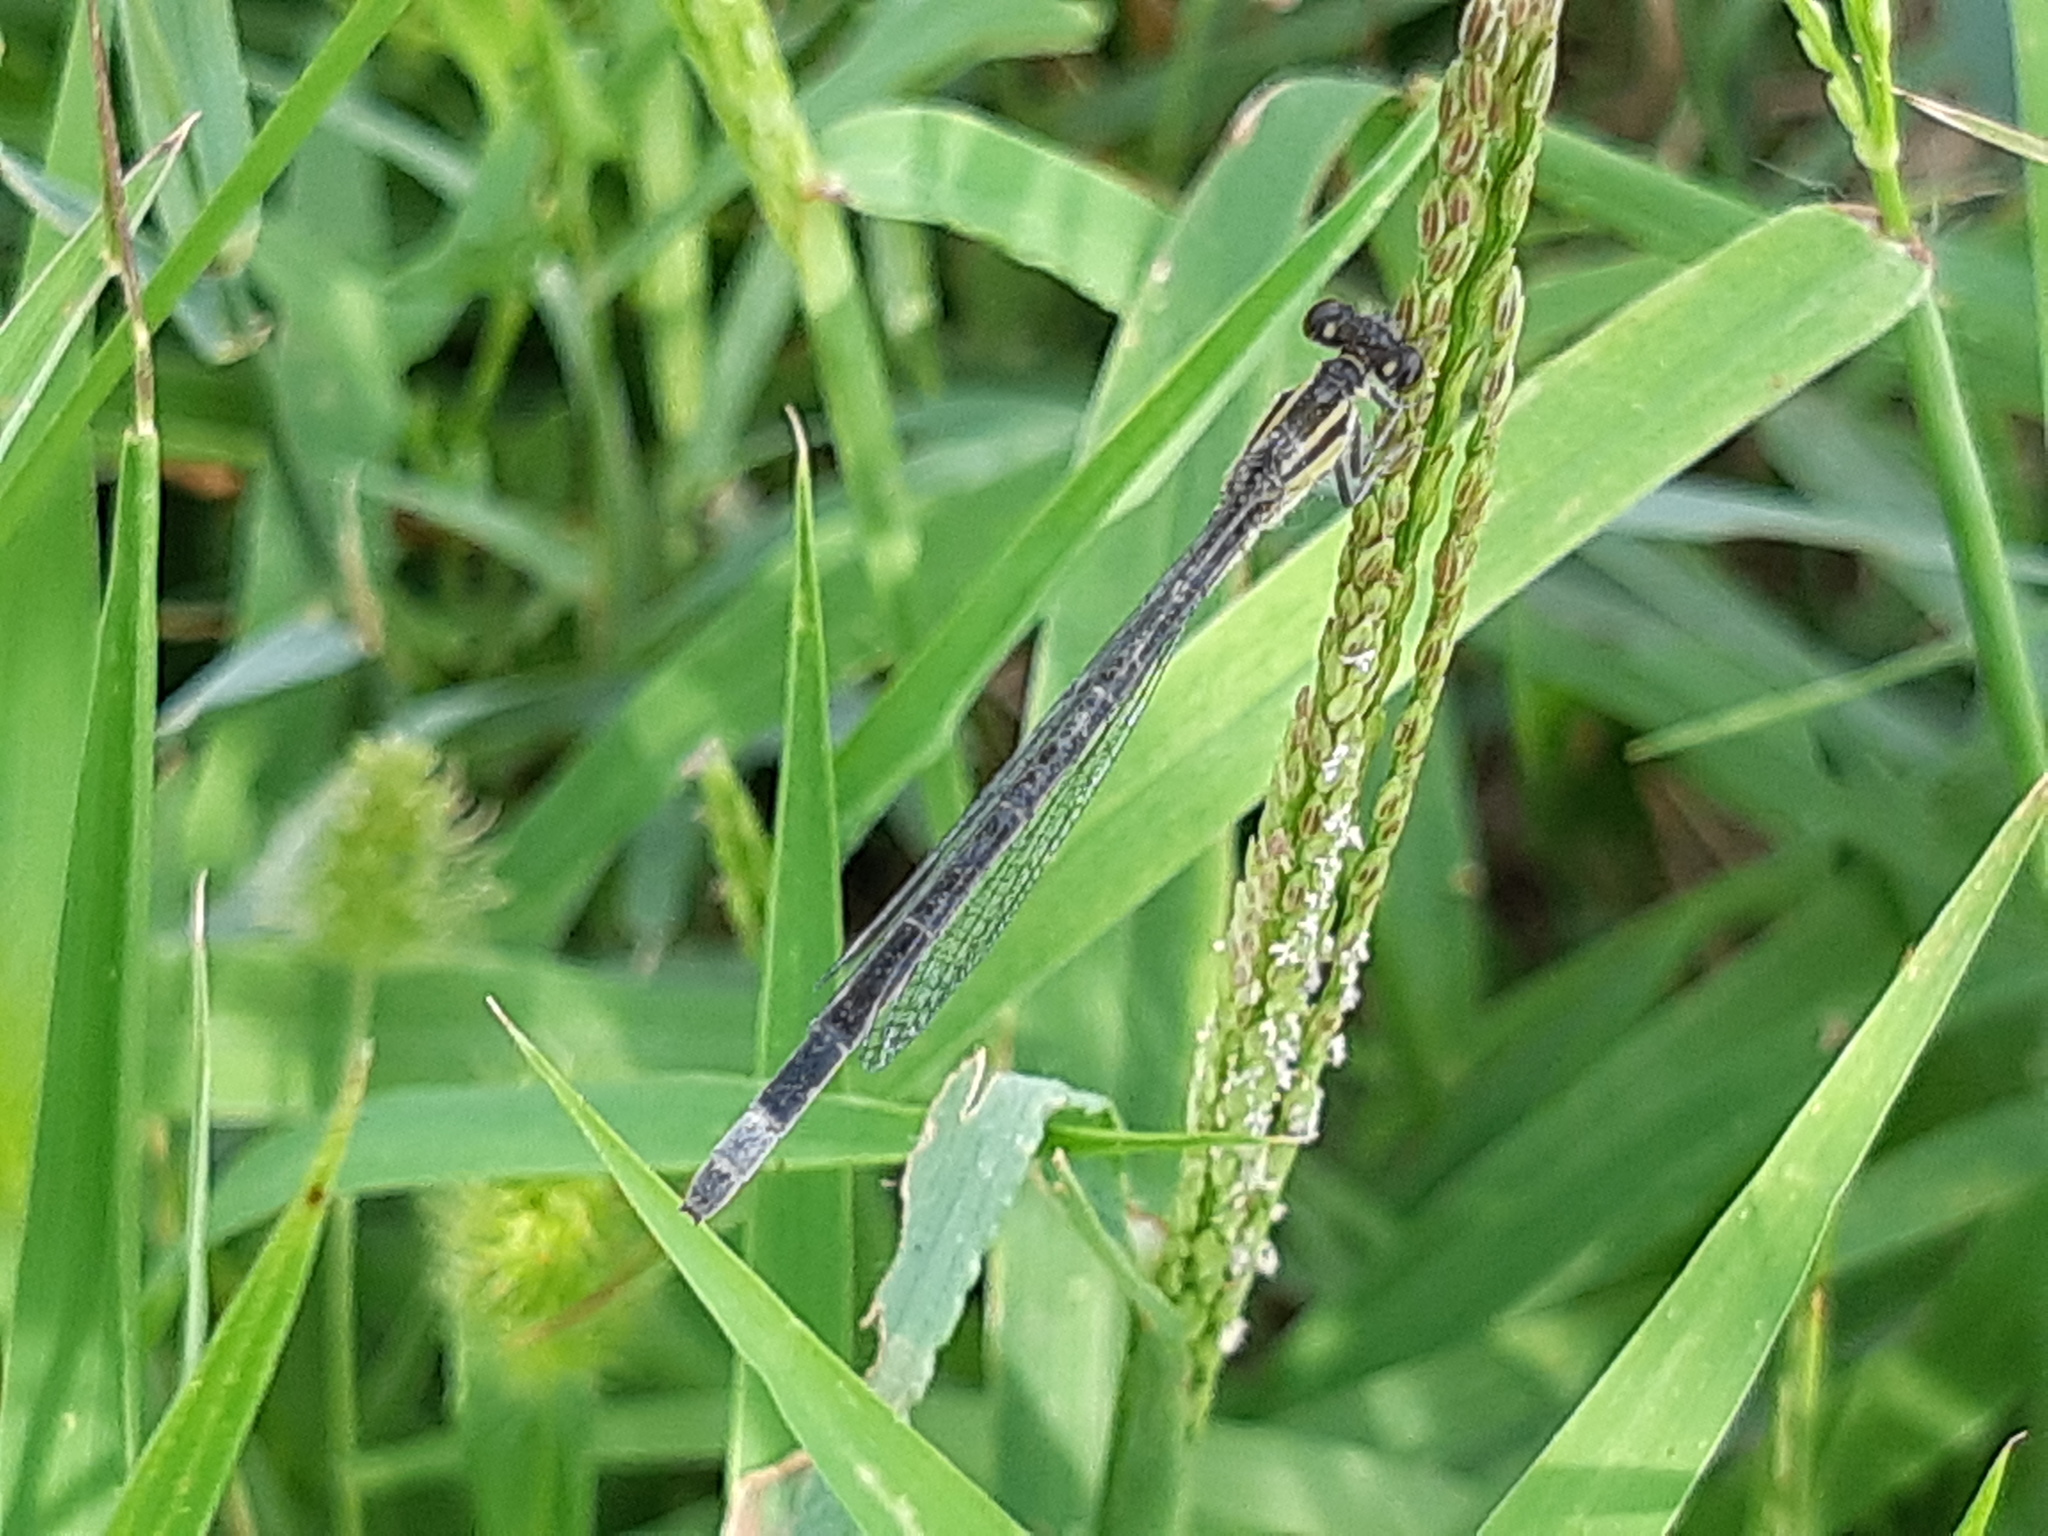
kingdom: Animalia
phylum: Arthropoda
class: Insecta
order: Odonata
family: Coenagrionidae
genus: Ischnura
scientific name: Ischnura elegans
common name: Blue-tailed damselfly
